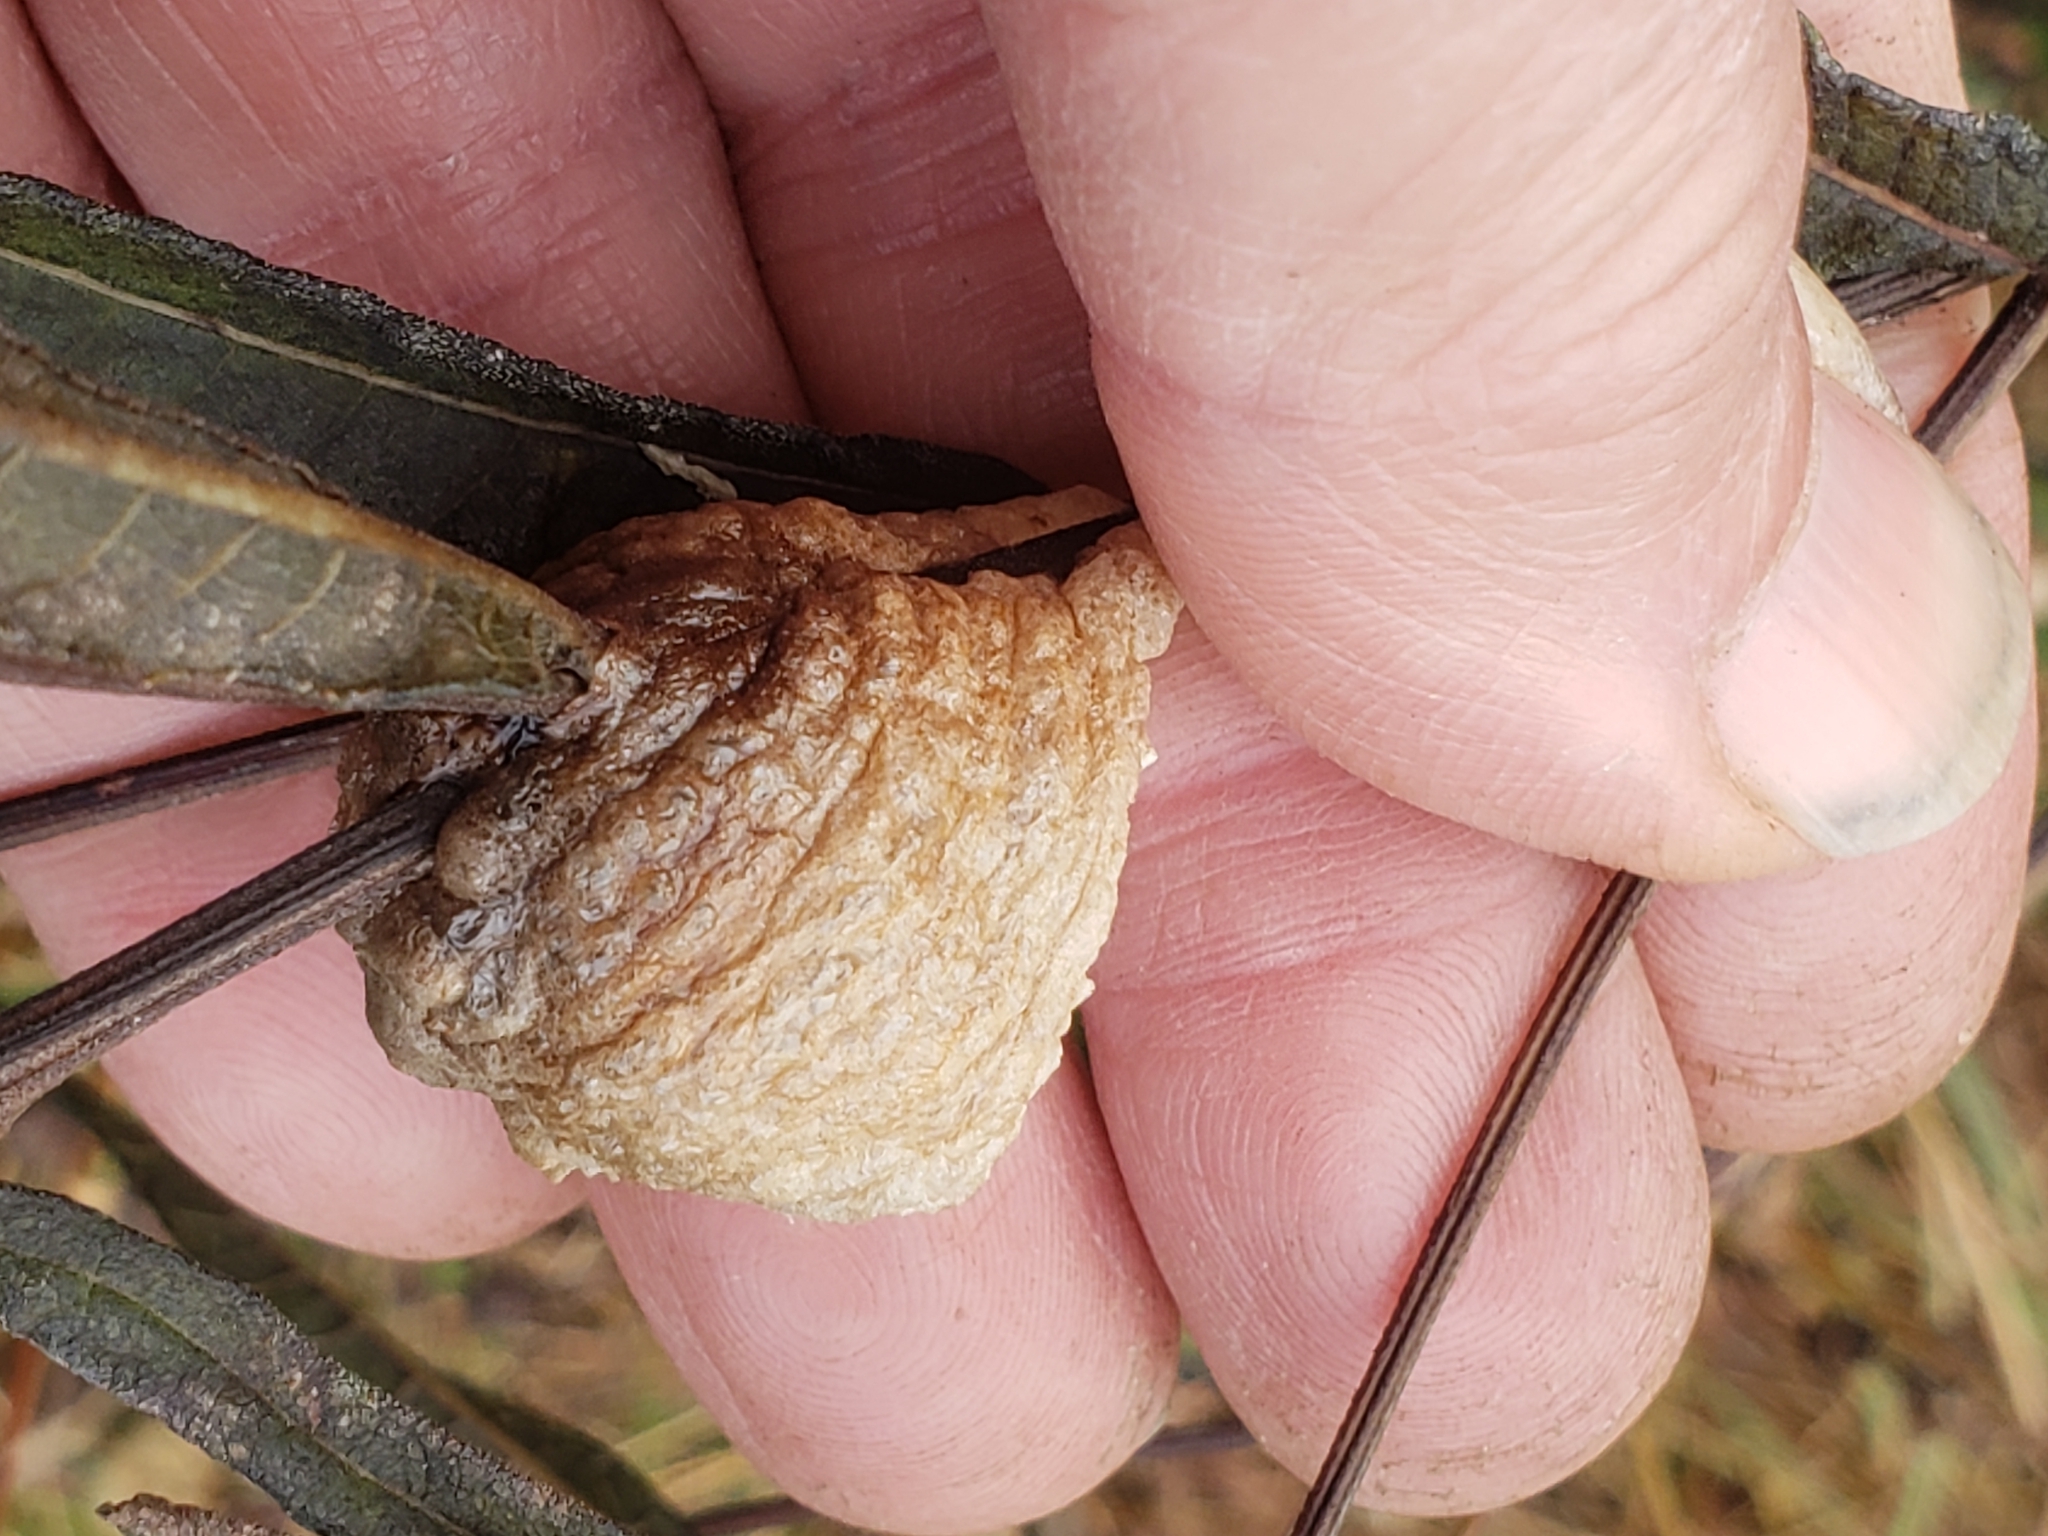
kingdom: Animalia
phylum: Arthropoda
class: Insecta
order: Mantodea
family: Mantidae
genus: Tenodera
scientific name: Tenodera sinensis
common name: Chinese mantis
